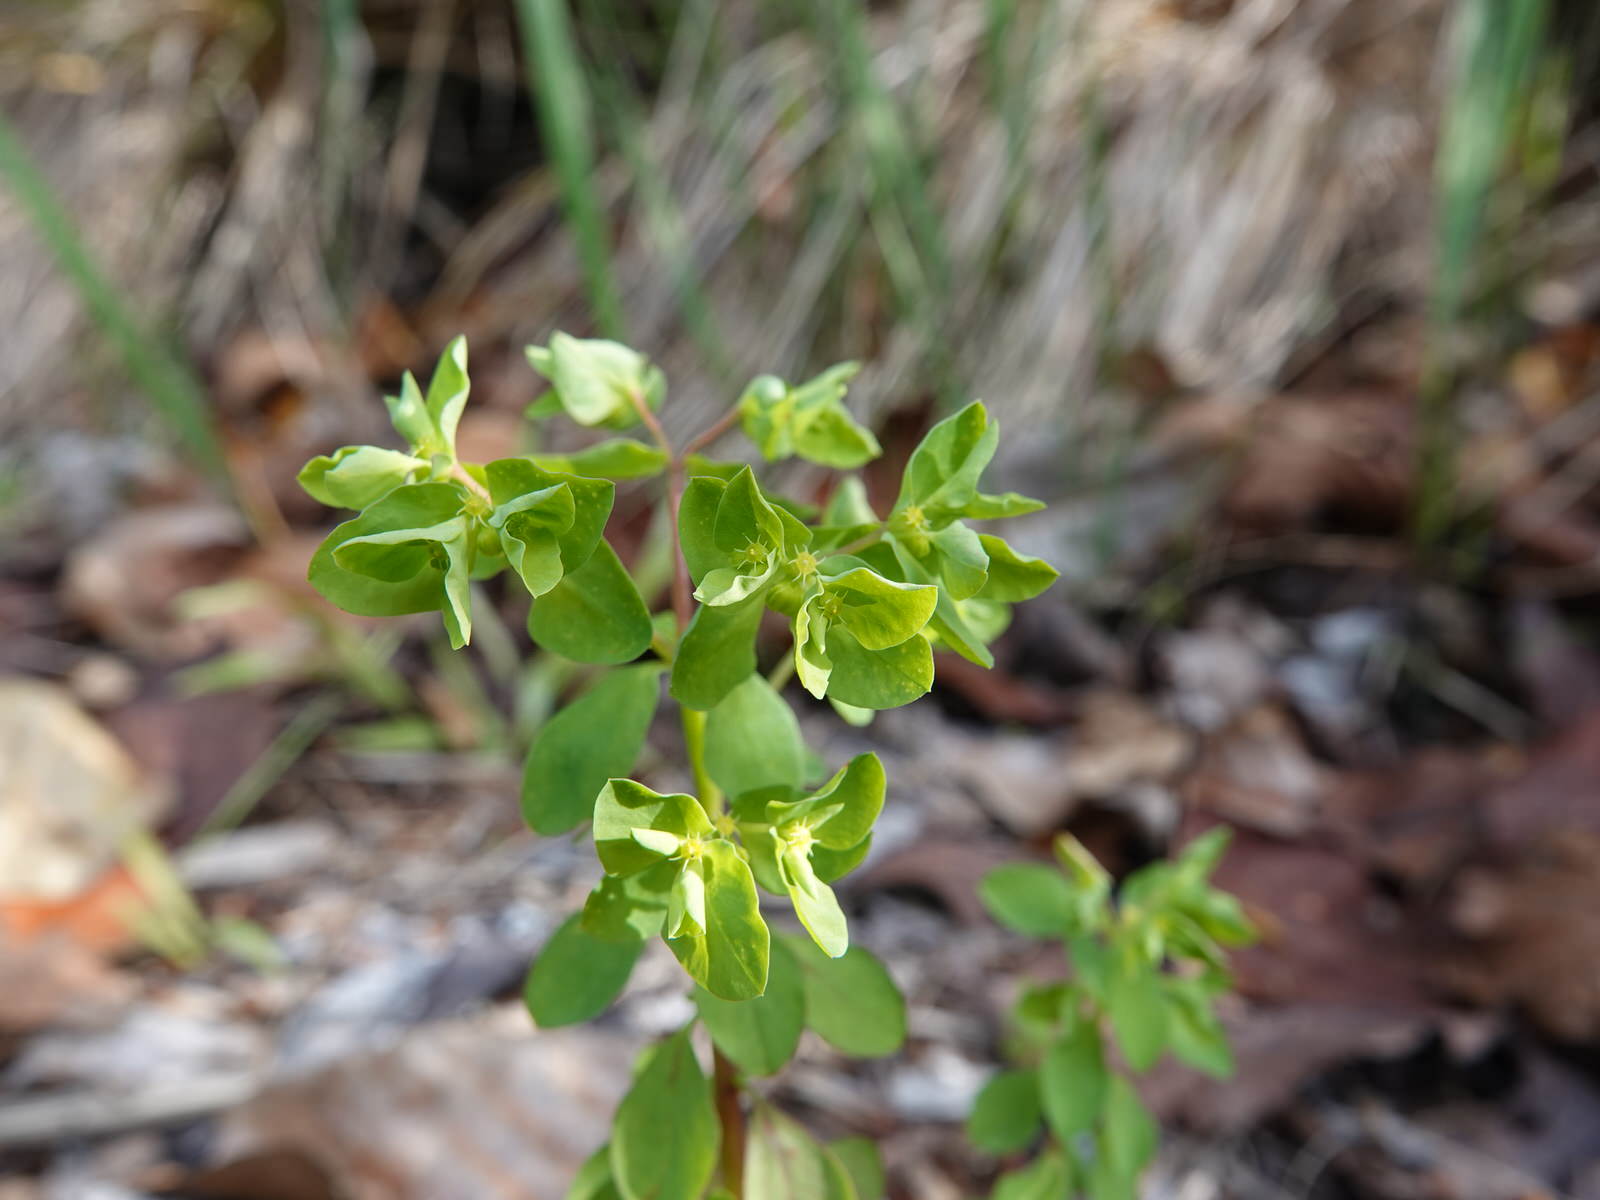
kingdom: Plantae
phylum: Tracheophyta
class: Magnoliopsida
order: Malpighiales
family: Euphorbiaceae
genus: Euphorbia
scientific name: Euphorbia peplus
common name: Petty spurge
